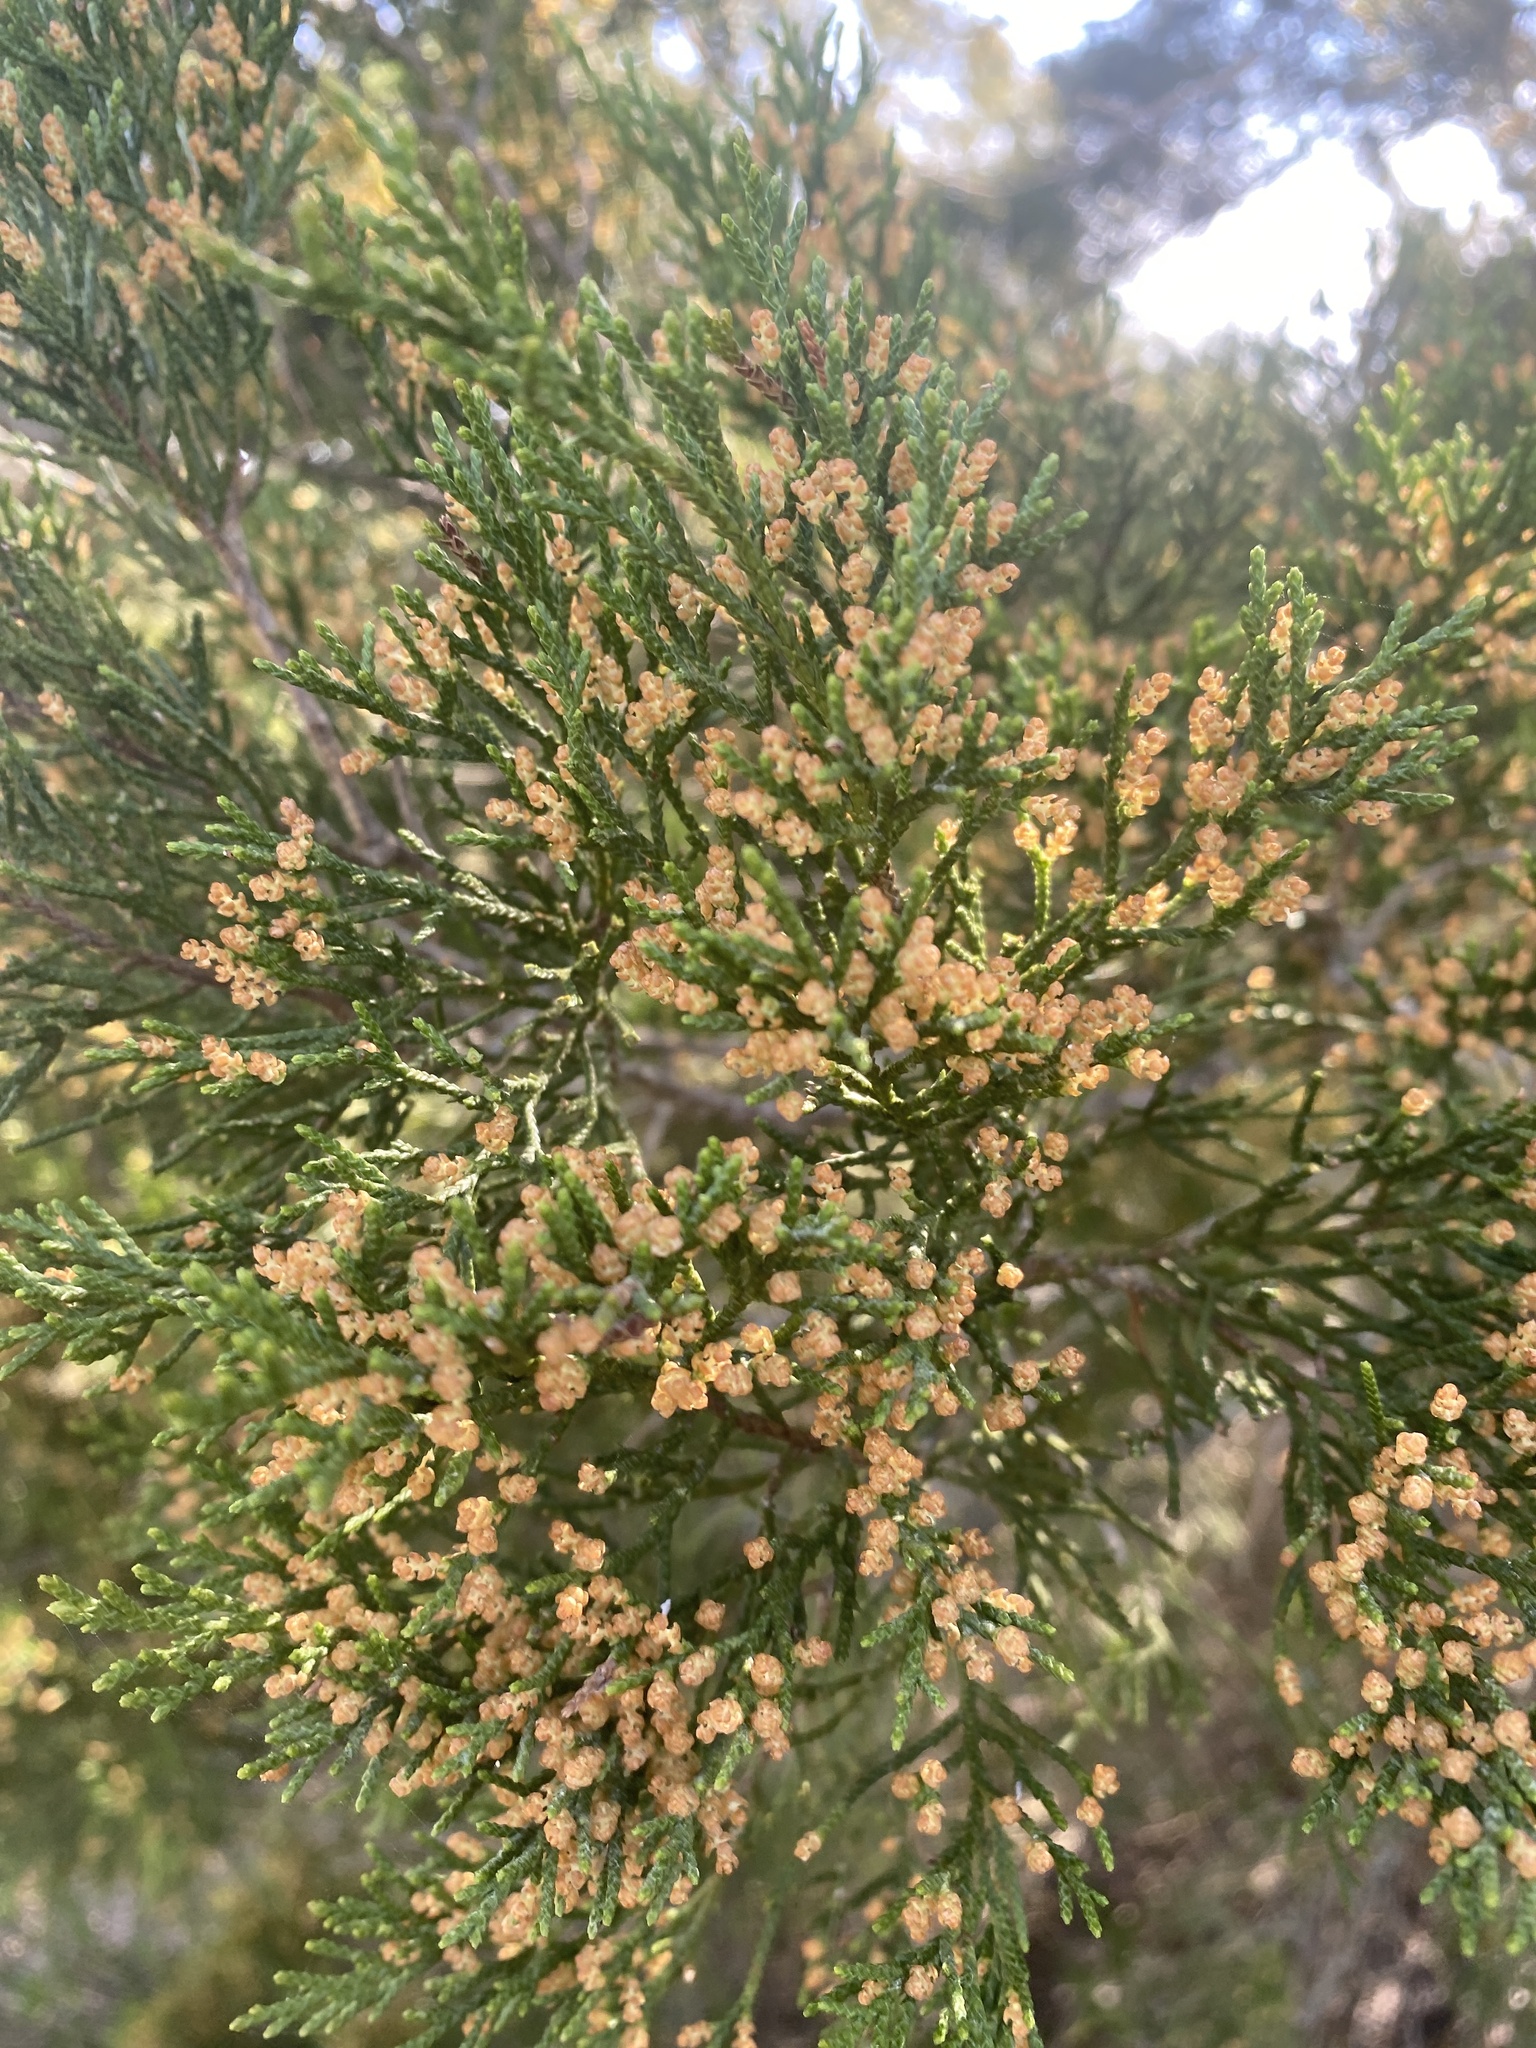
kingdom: Plantae
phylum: Tracheophyta
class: Pinopsida
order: Pinales
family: Cupressaceae
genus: Juniperus
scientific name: Juniperus virginiana
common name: Red juniper
